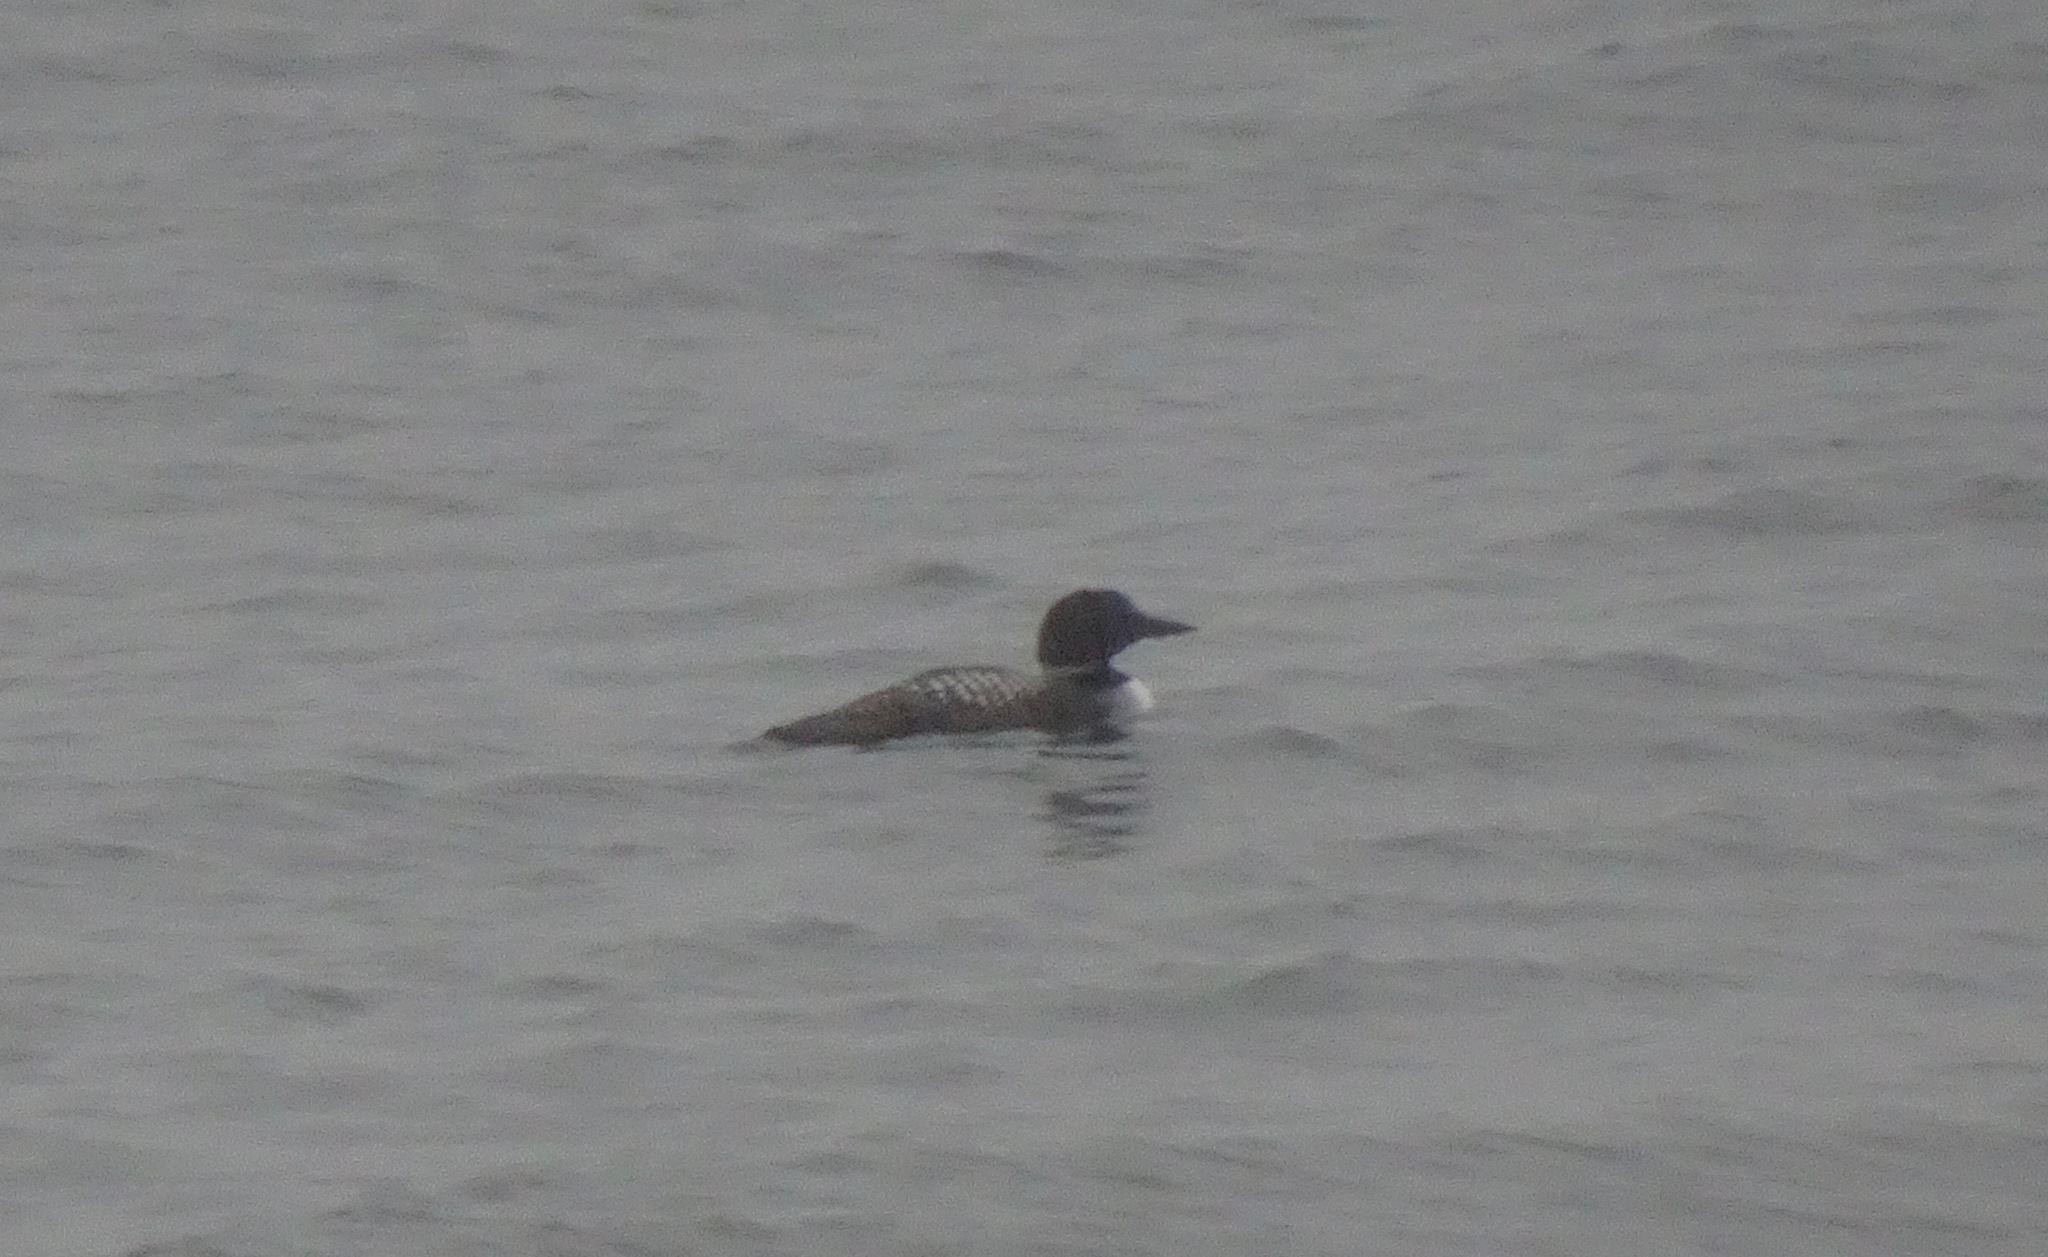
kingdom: Animalia
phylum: Chordata
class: Aves
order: Gaviiformes
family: Gaviidae
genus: Gavia
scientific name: Gavia immer
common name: Common loon
